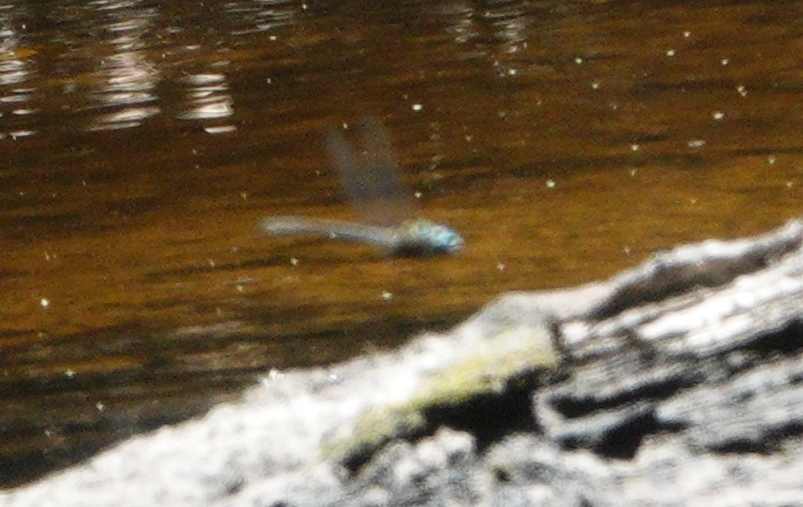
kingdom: Animalia
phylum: Arthropoda
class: Insecta
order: Odonata
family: Aeshnidae
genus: Nasiaeschna
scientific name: Nasiaeschna pentacantha
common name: Cyrano darner
